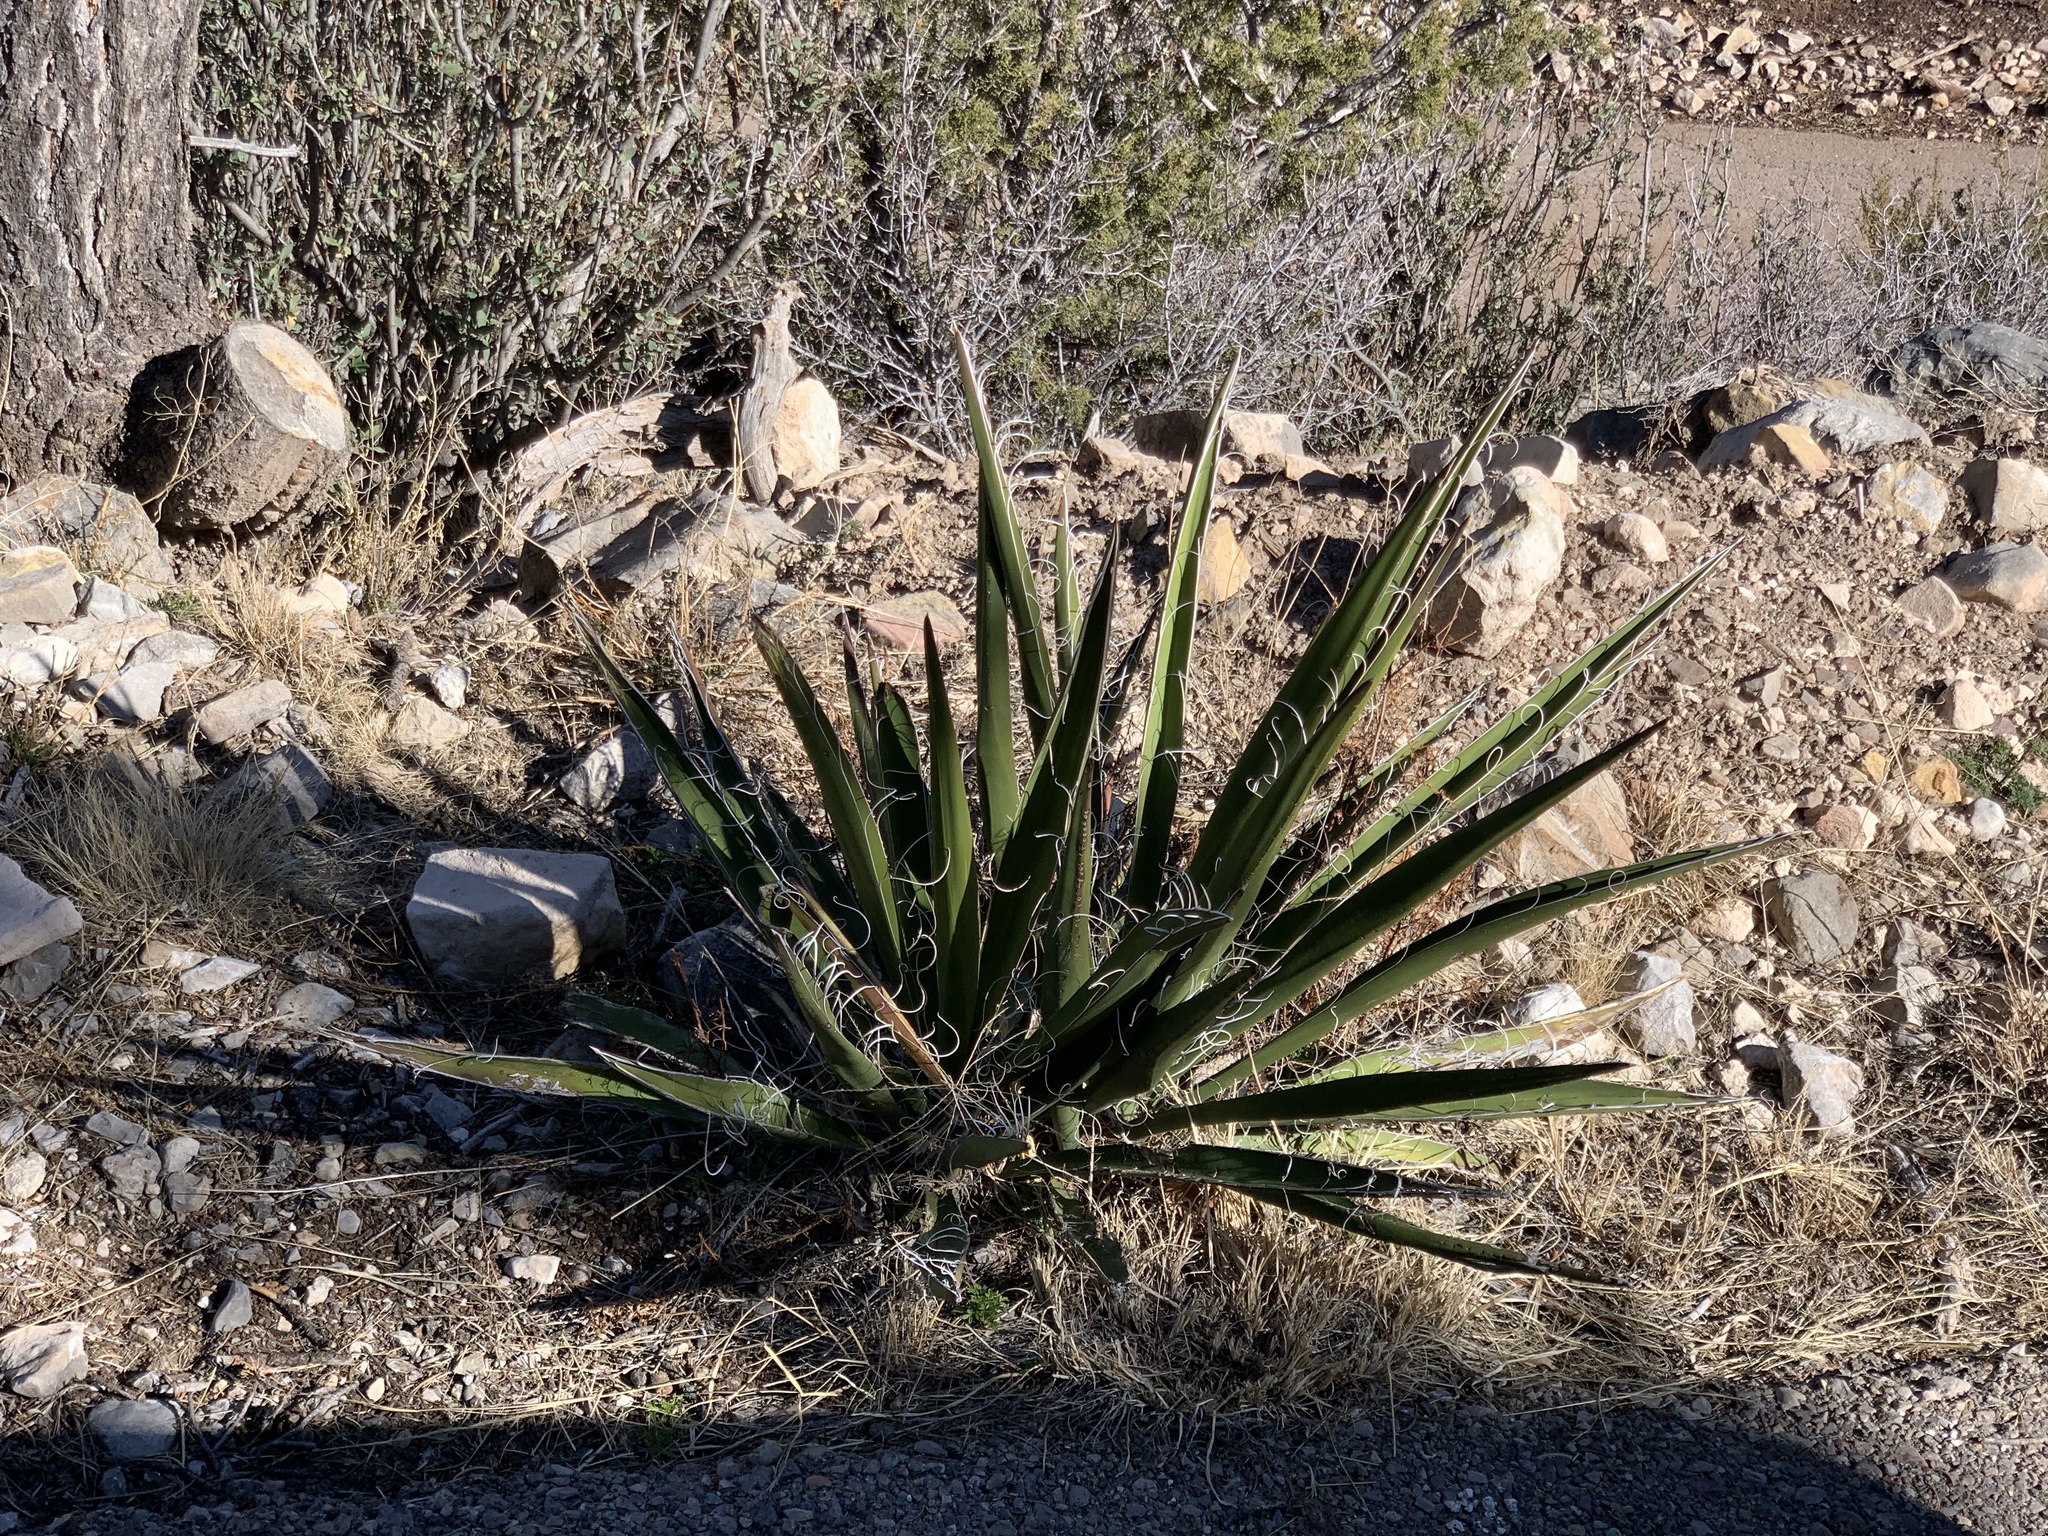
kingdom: Plantae
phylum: Tracheophyta
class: Liliopsida
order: Asparagales
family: Asparagaceae
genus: Yucca
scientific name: Yucca baccata
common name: Banana yucca
